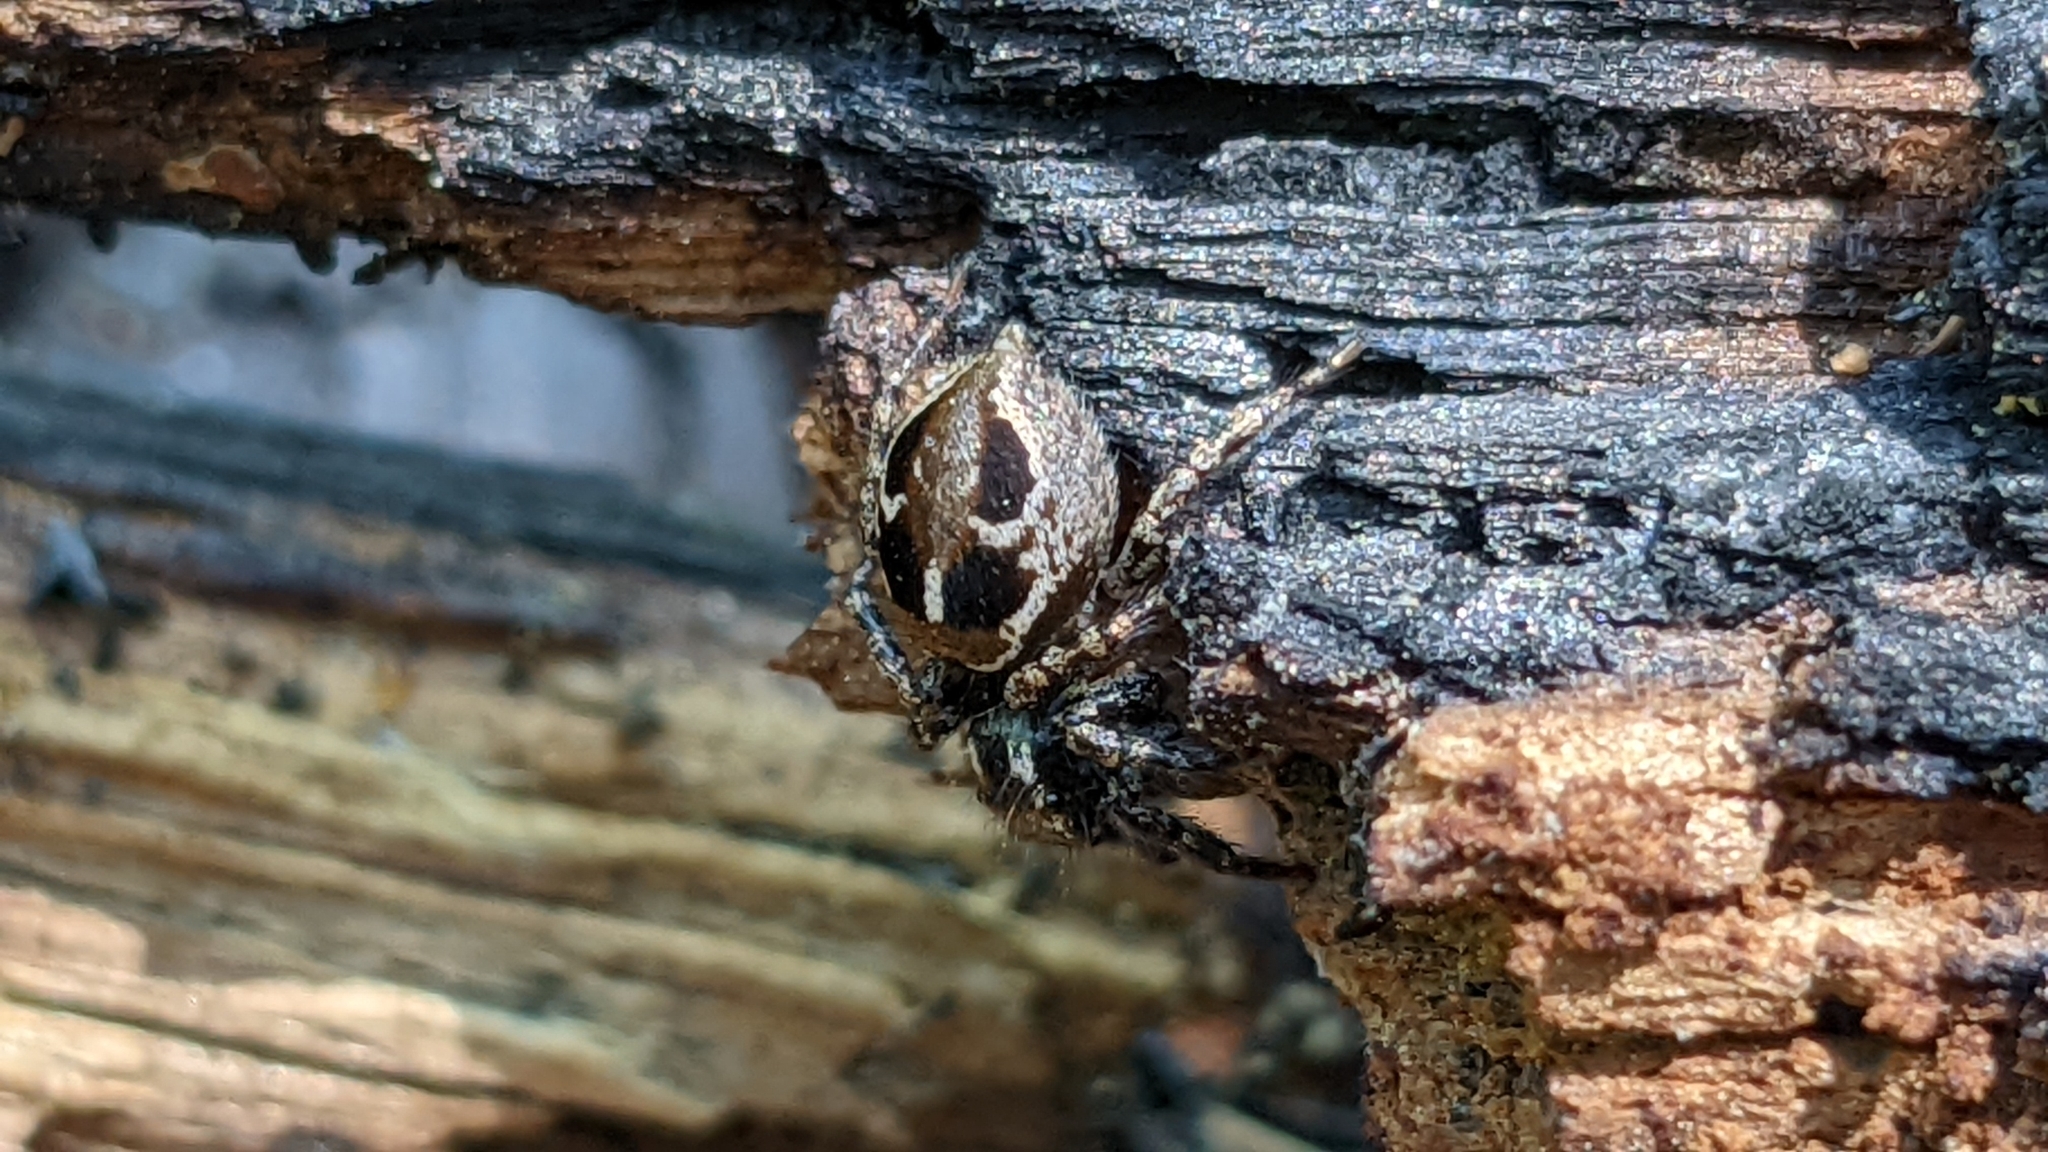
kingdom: Animalia
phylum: Arthropoda
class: Arachnida
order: Araneae
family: Salticidae
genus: Anasaitis
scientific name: Anasaitis canosa
